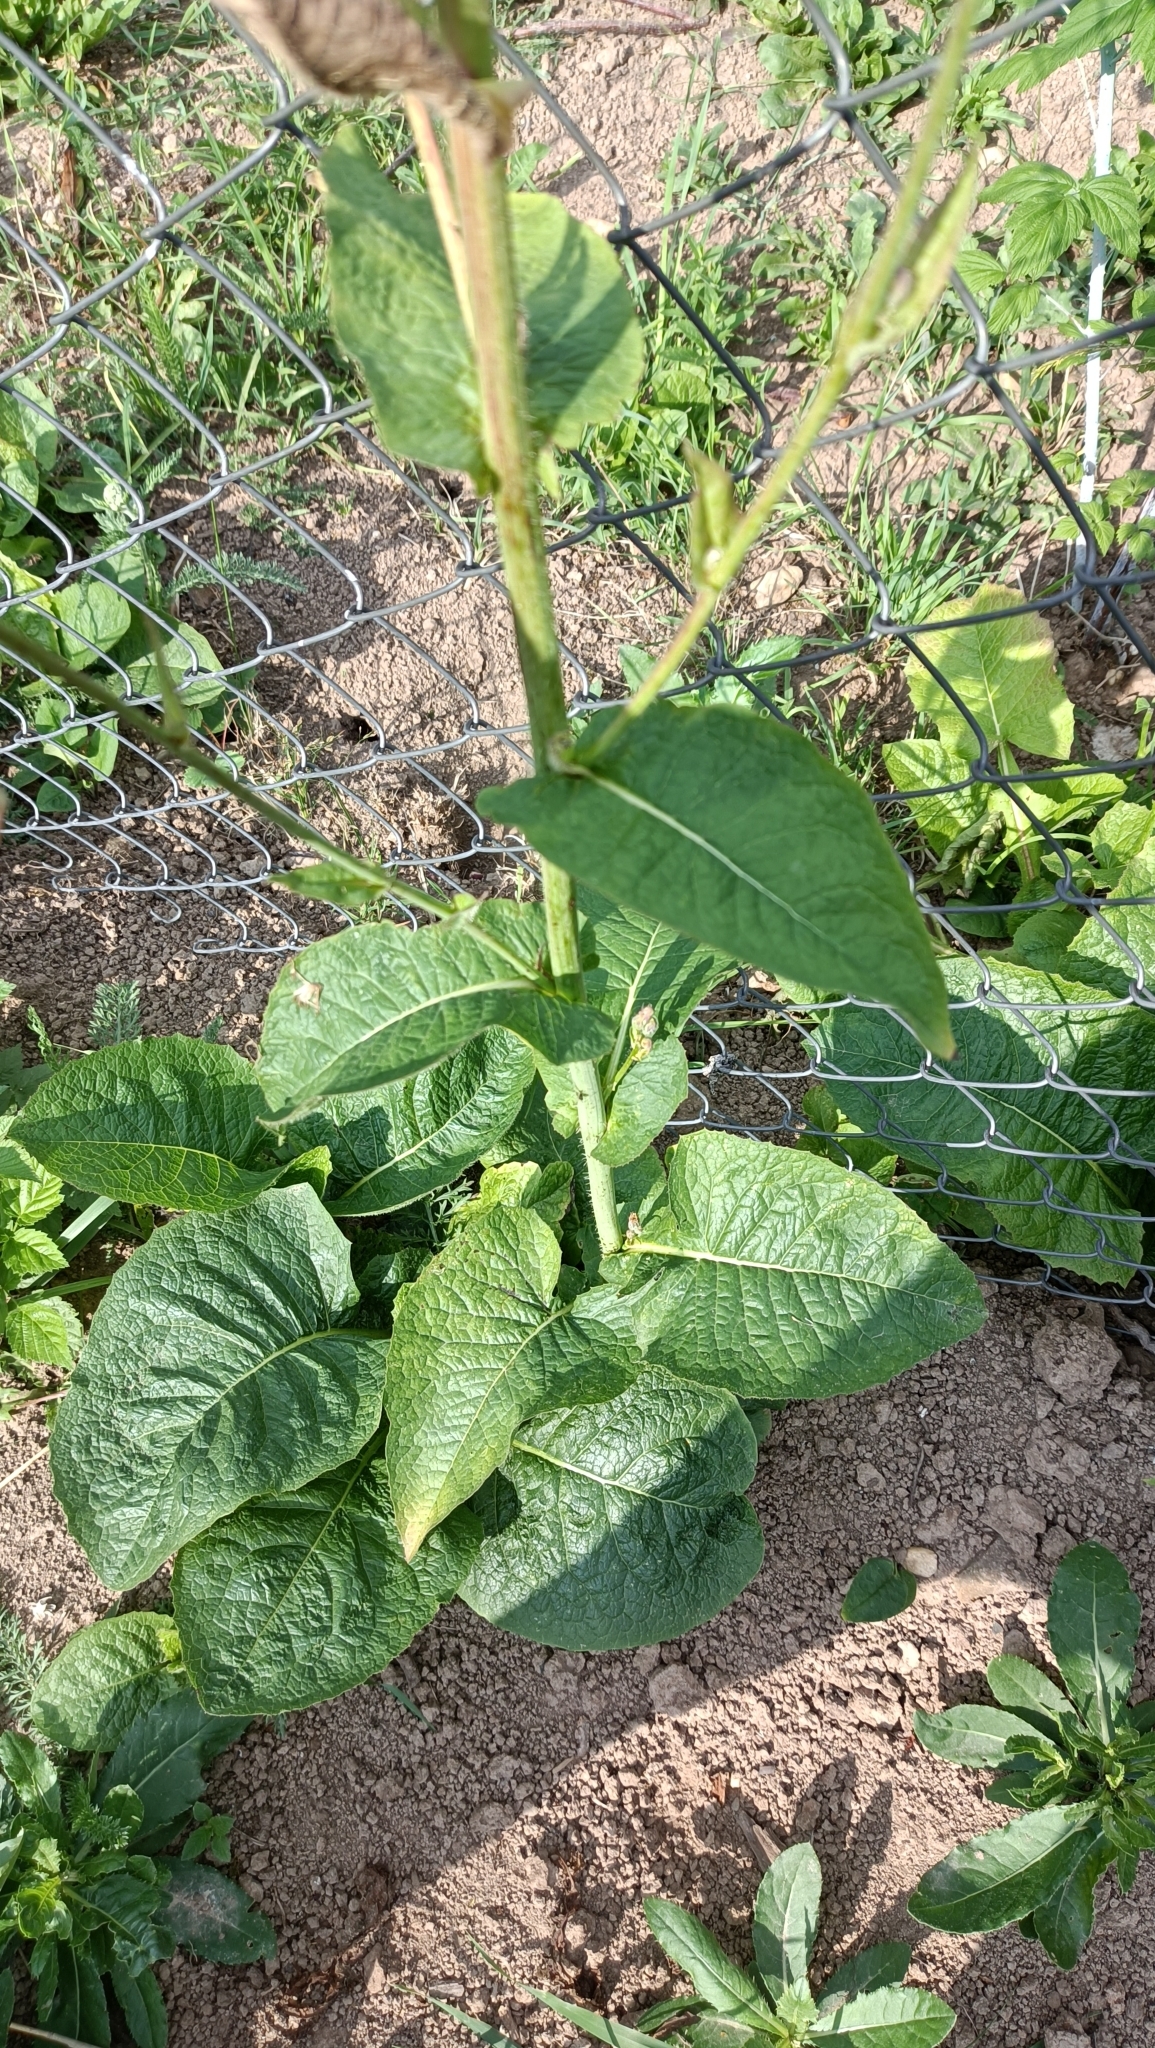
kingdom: Plantae
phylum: Tracheophyta
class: Magnoliopsida
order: Asterales
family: Asteraceae
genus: Lactuca
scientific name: Lactuca macrophylla
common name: Common blue-sow-thistle
